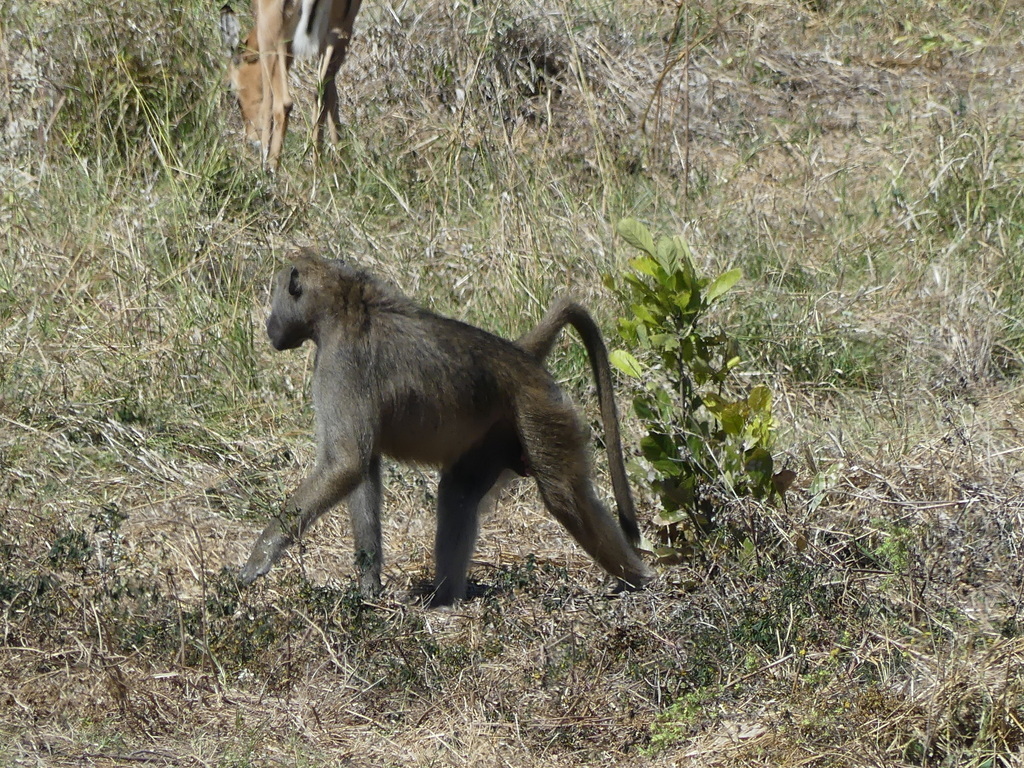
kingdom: Animalia
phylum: Chordata
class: Mammalia
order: Primates
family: Cercopithecidae
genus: Papio
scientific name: Papio ursinus
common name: Chacma baboon
